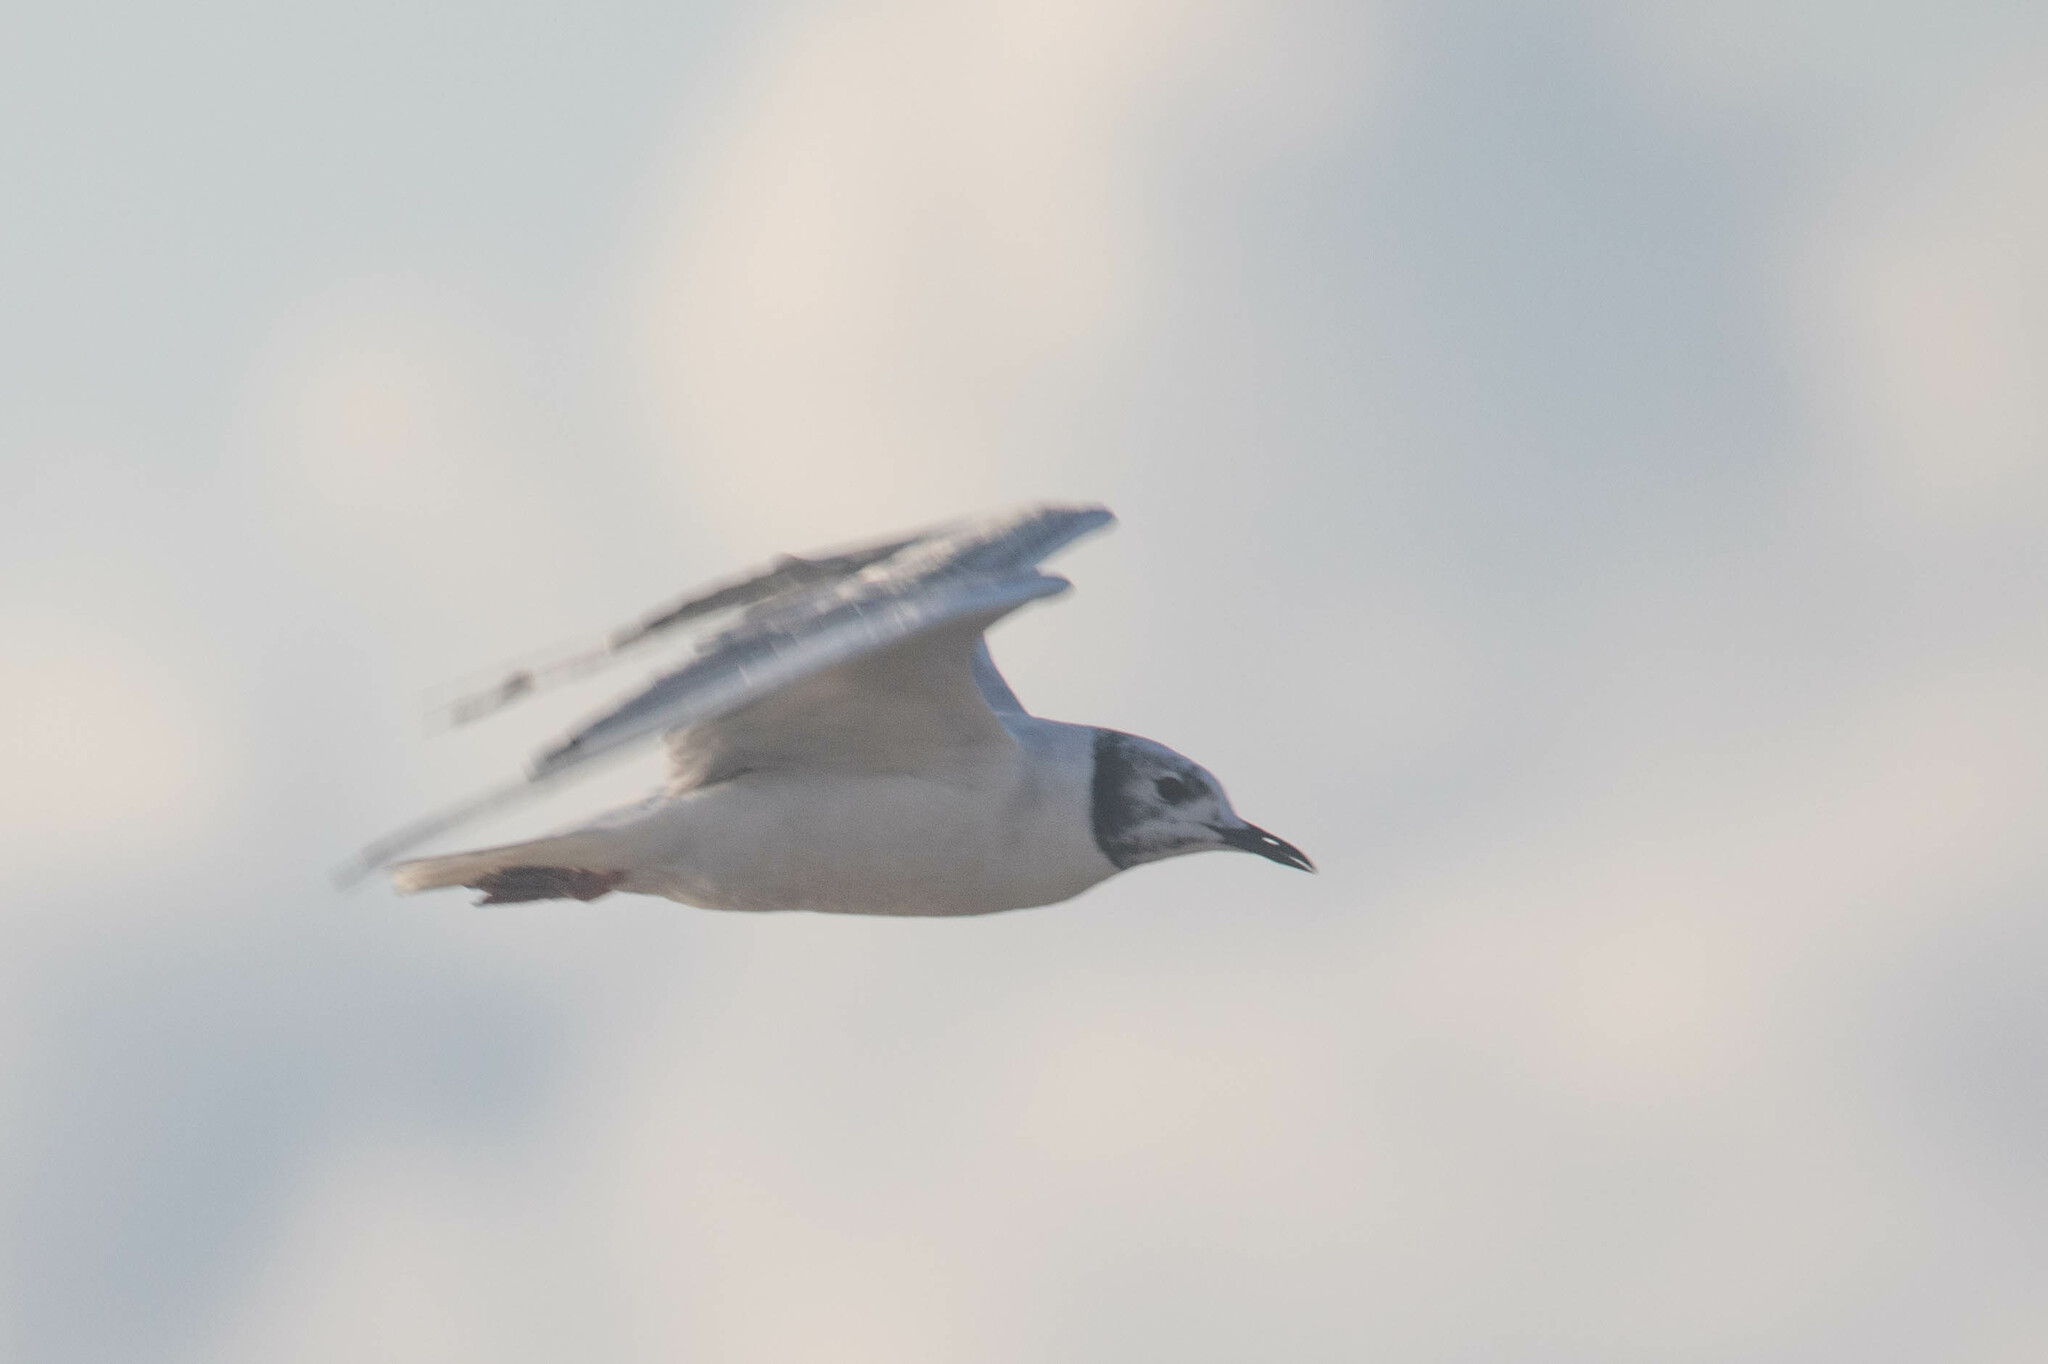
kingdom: Animalia
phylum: Chordata
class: Aves
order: Charadriiformes
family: Laridae
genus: Chroicocephalus
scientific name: Chroicocephalus philadelphia
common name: Bonaparte's gull
